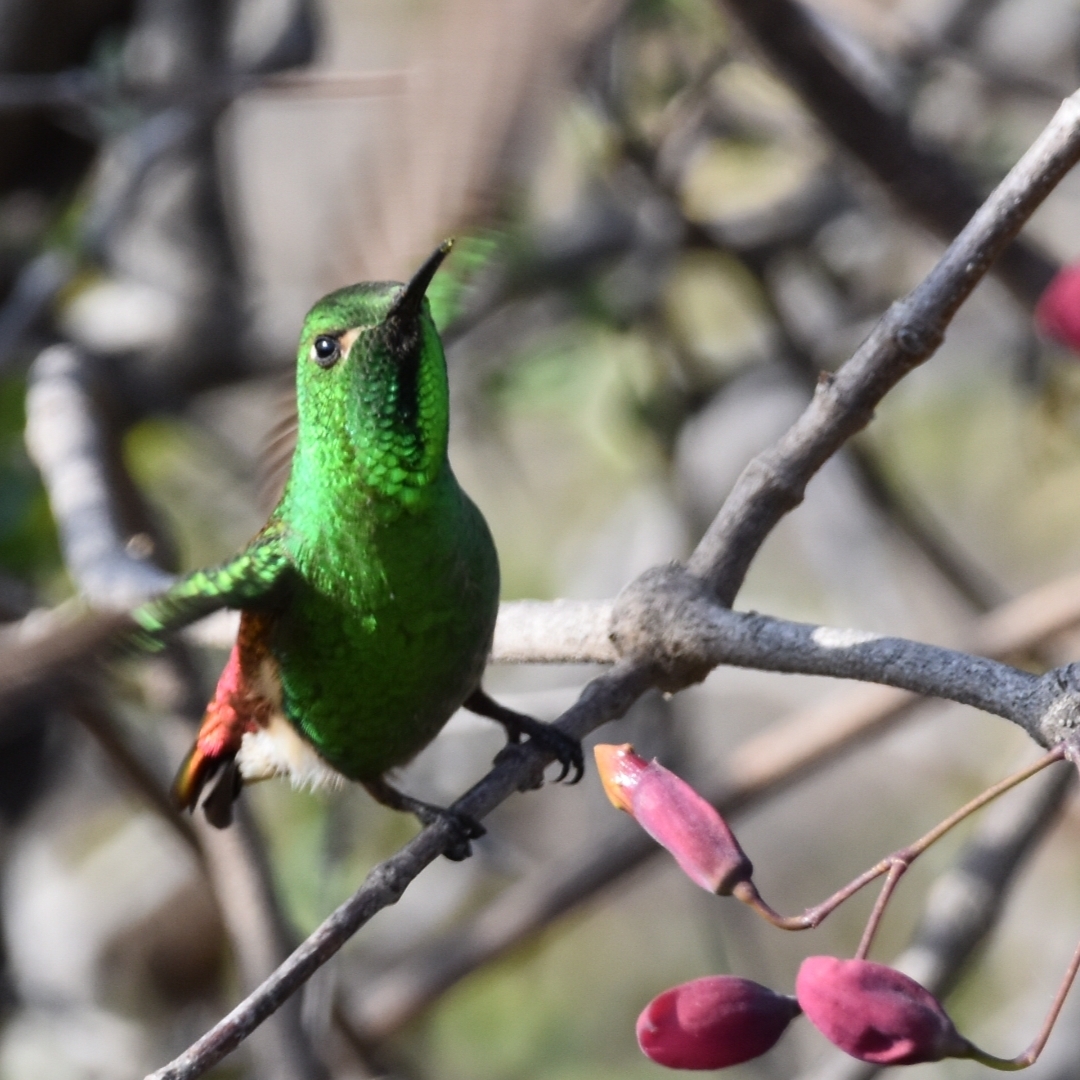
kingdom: Animalia
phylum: Chordata
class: Aves
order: Apodiformes
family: Trochilidae
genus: Sappho
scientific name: Sappho sparganurus
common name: Red-tailed comet
